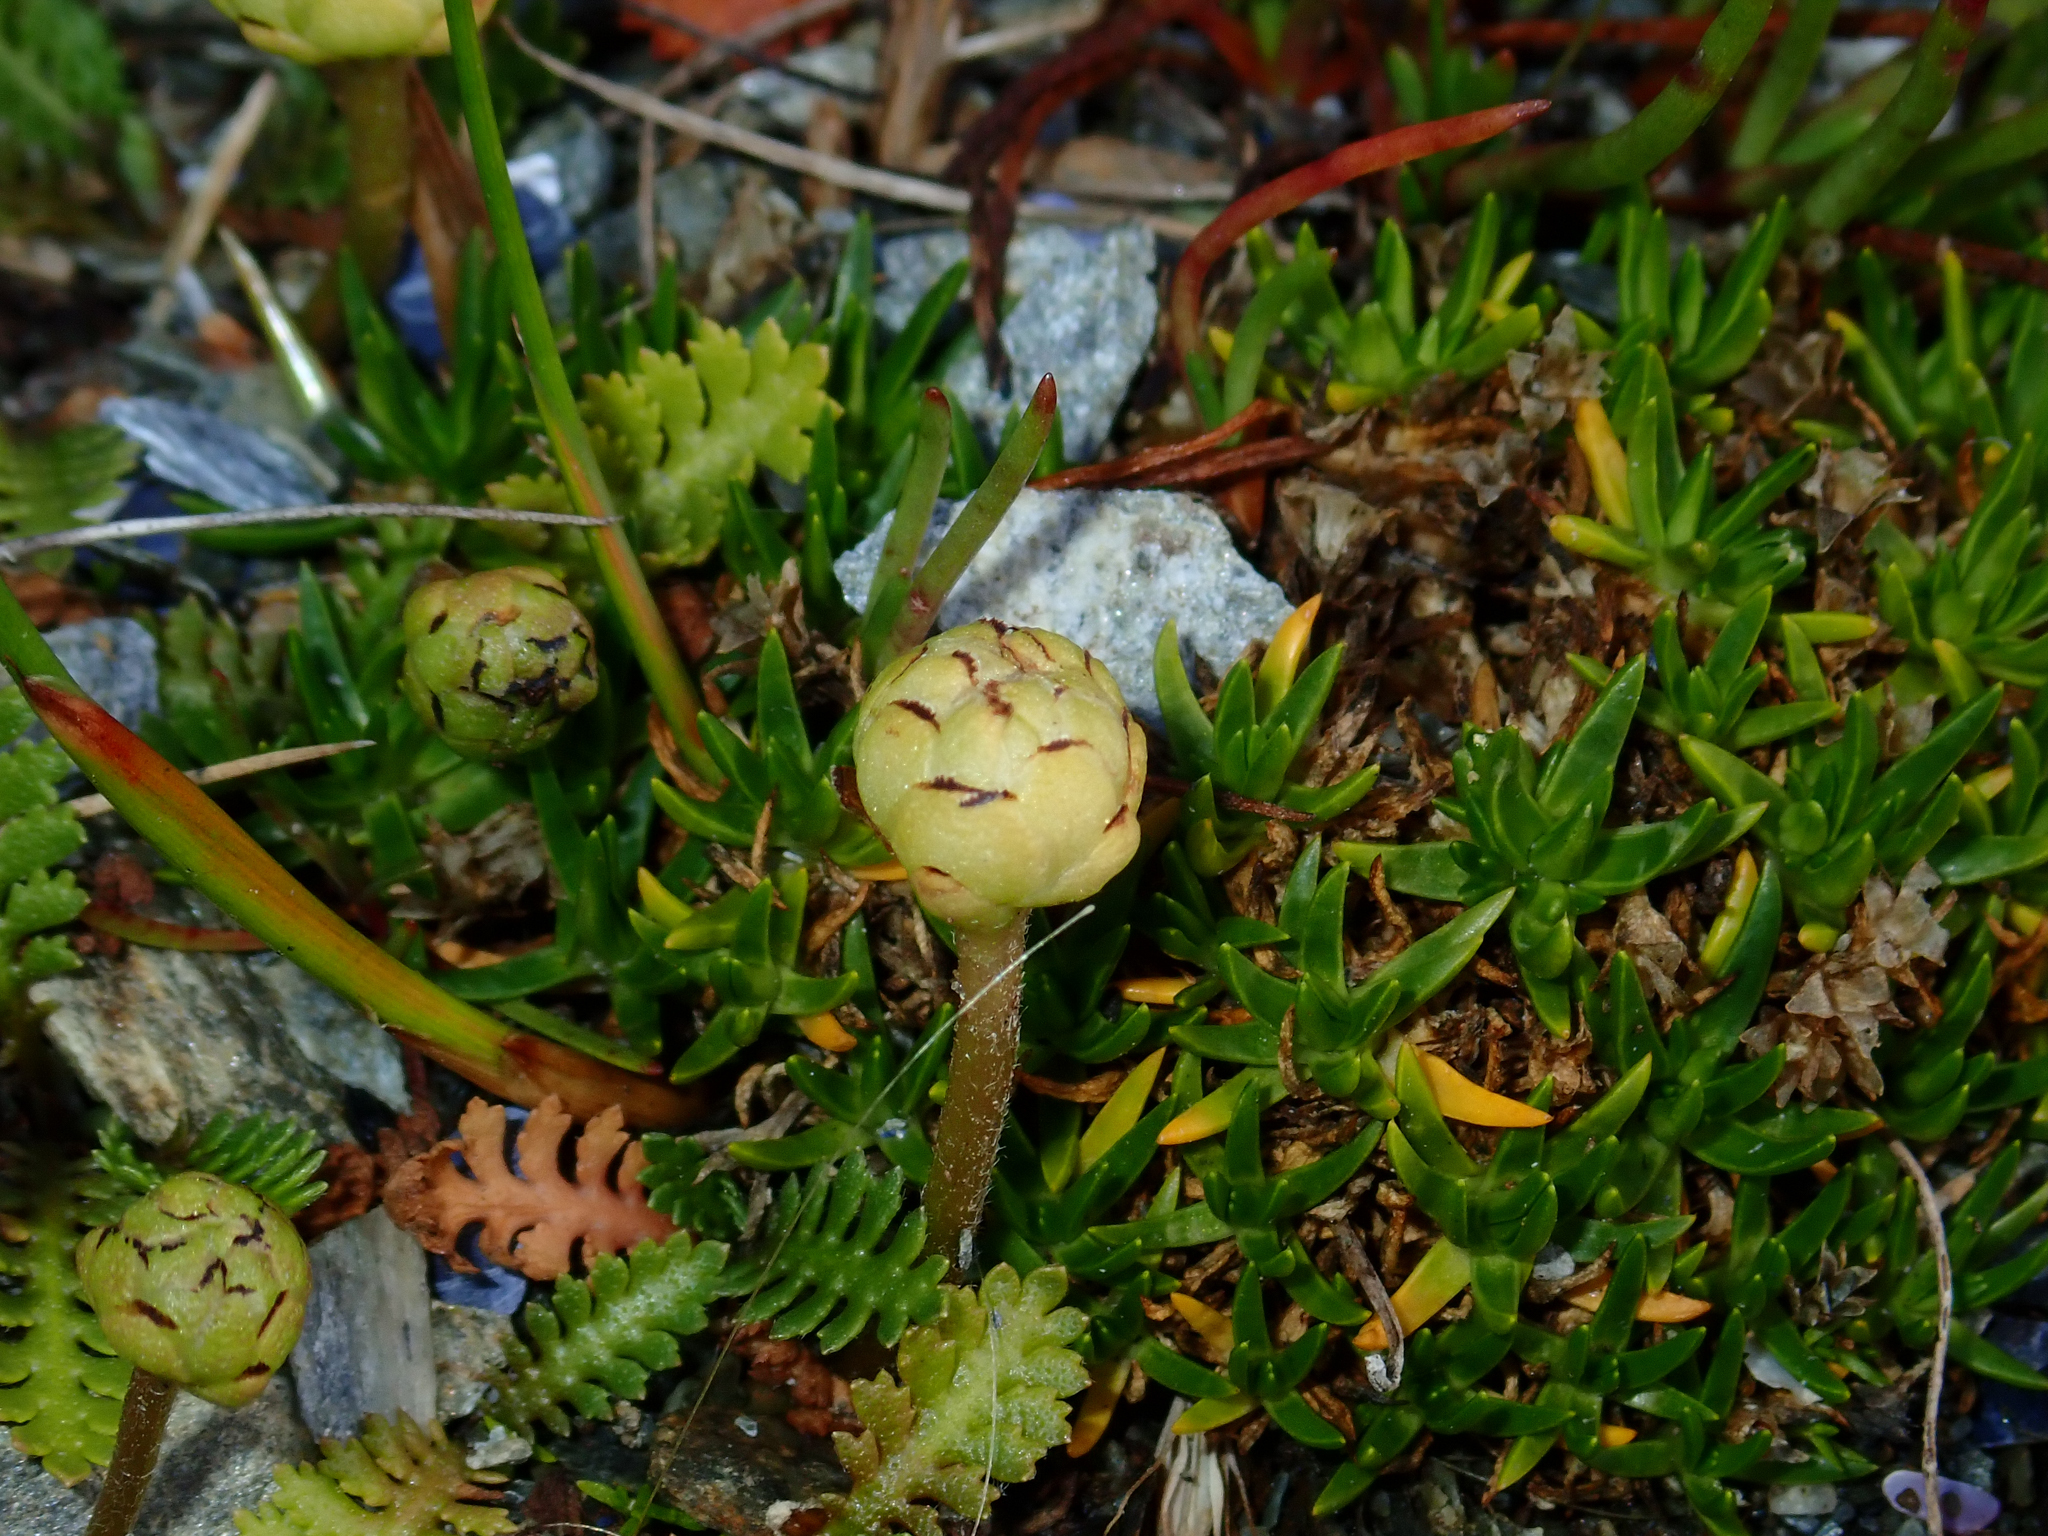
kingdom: Plantae
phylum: Tracheophyta
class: Magnoliopsida
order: Asterales
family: Asteraceae
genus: Leptinella
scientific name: Leptinella scariosa
